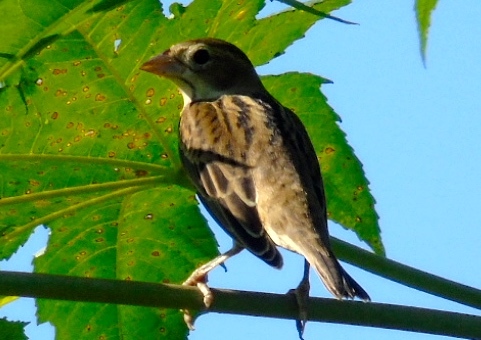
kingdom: Animalia
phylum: Chordata
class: Aves
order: Passeriformes
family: Cardinalidae
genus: Spiza
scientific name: Spiza americana
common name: Dickcissel
